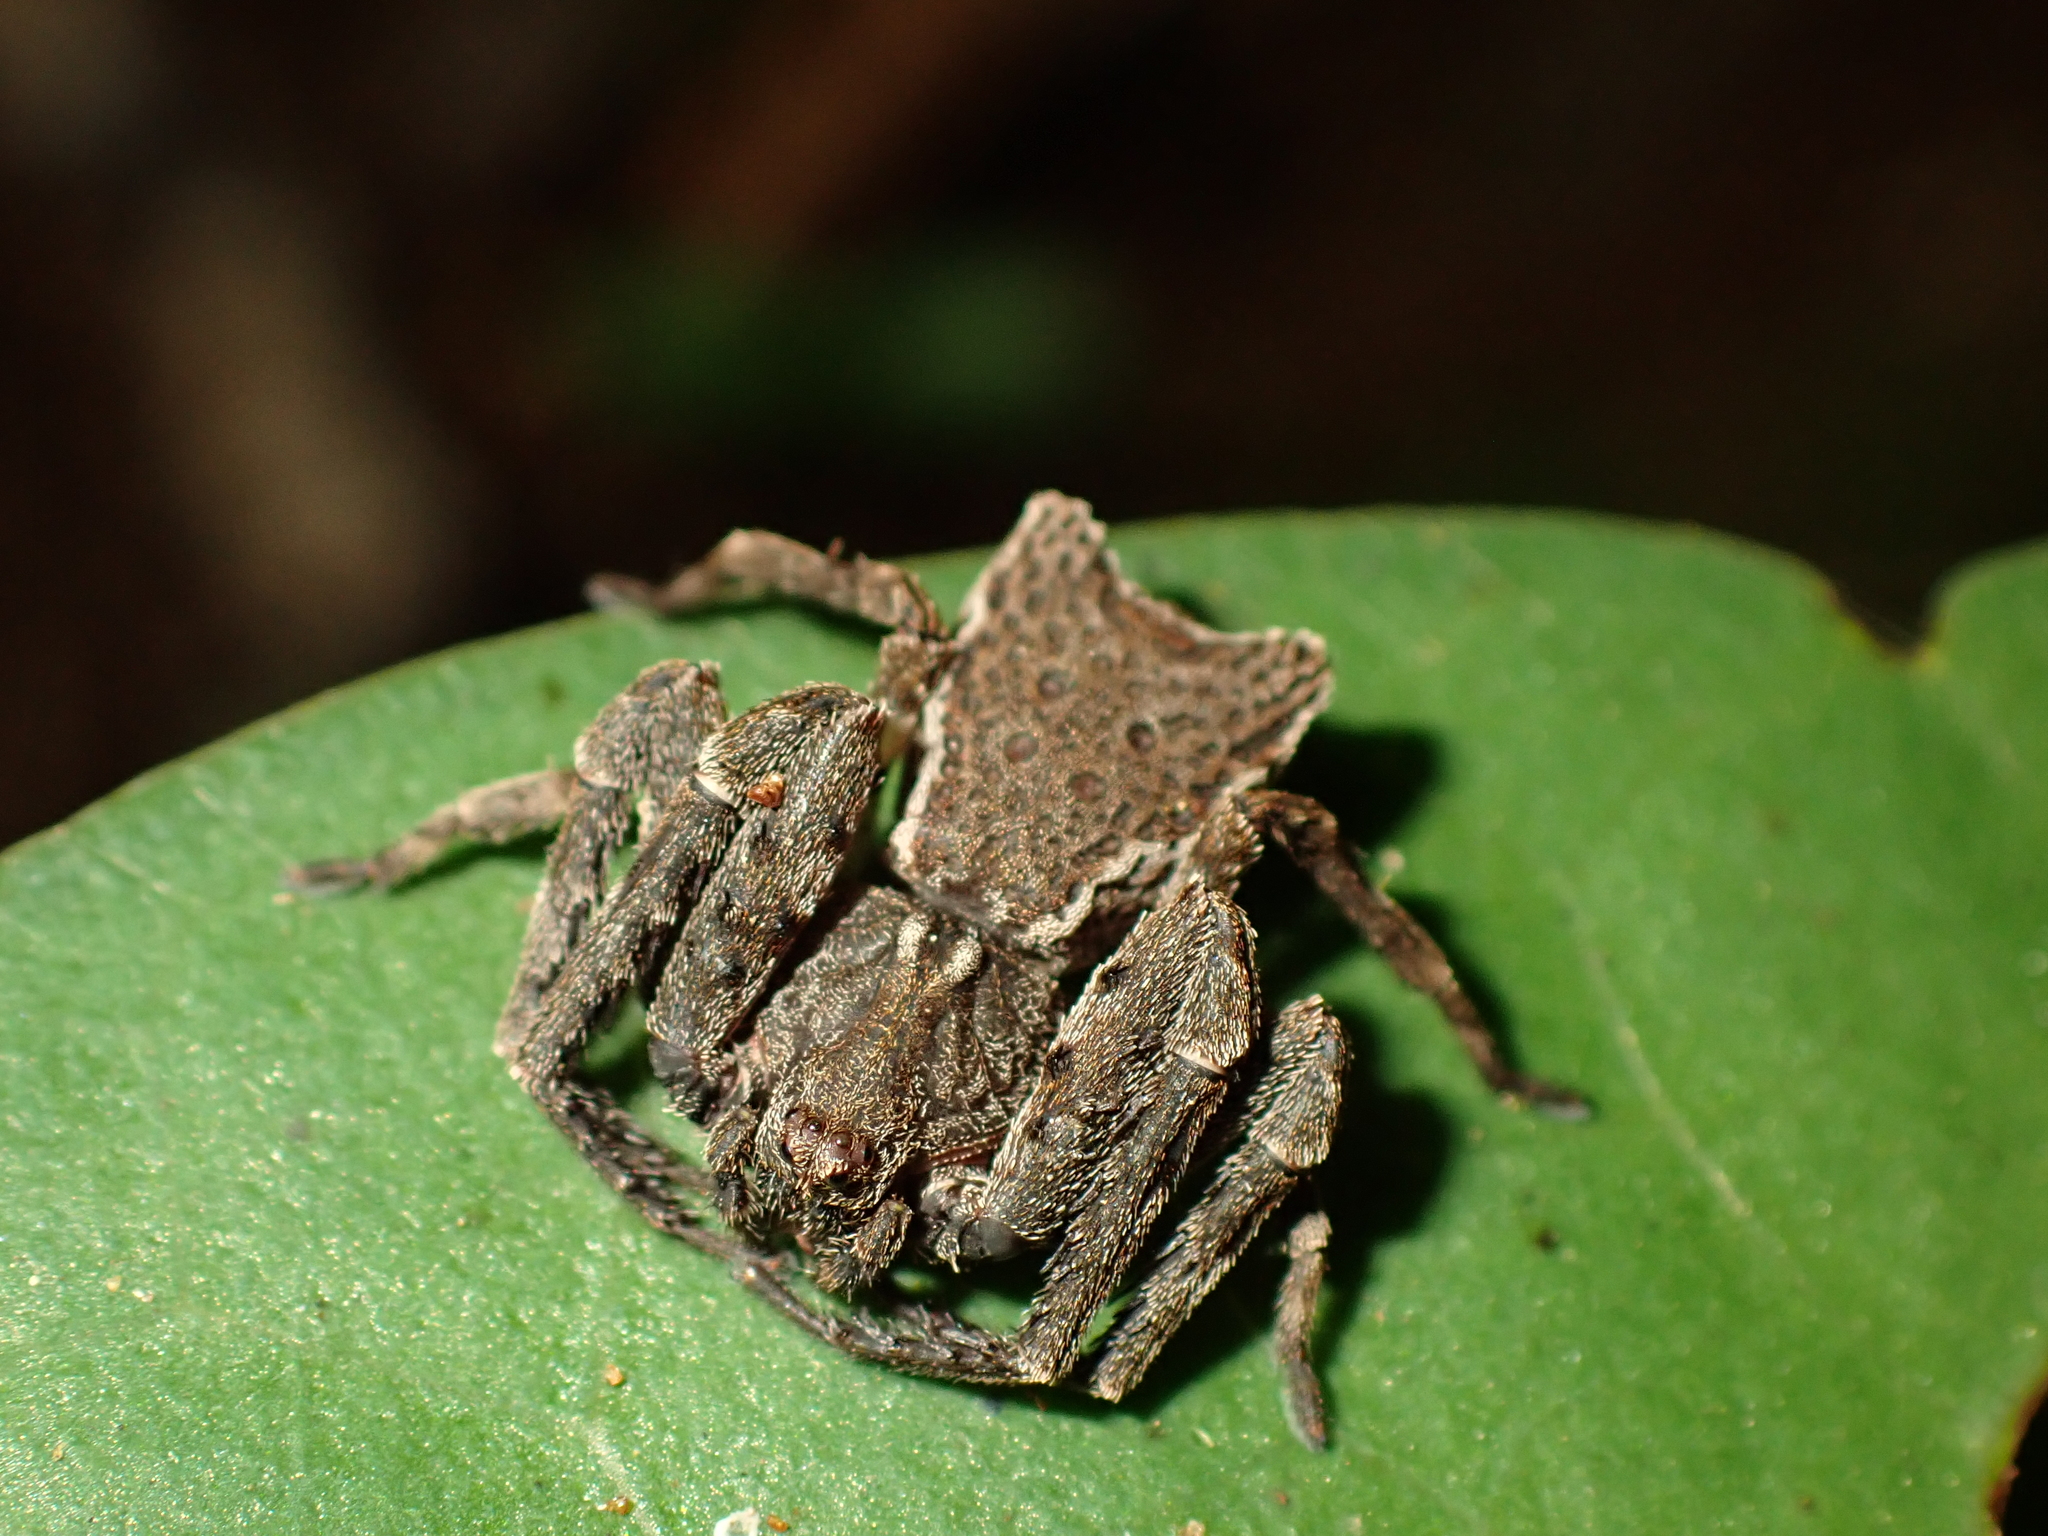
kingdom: Animalia
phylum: Arthropoda
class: Arachnida
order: Araneae
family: Thomisidae
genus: Sidymella
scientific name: Sidymella angularis
